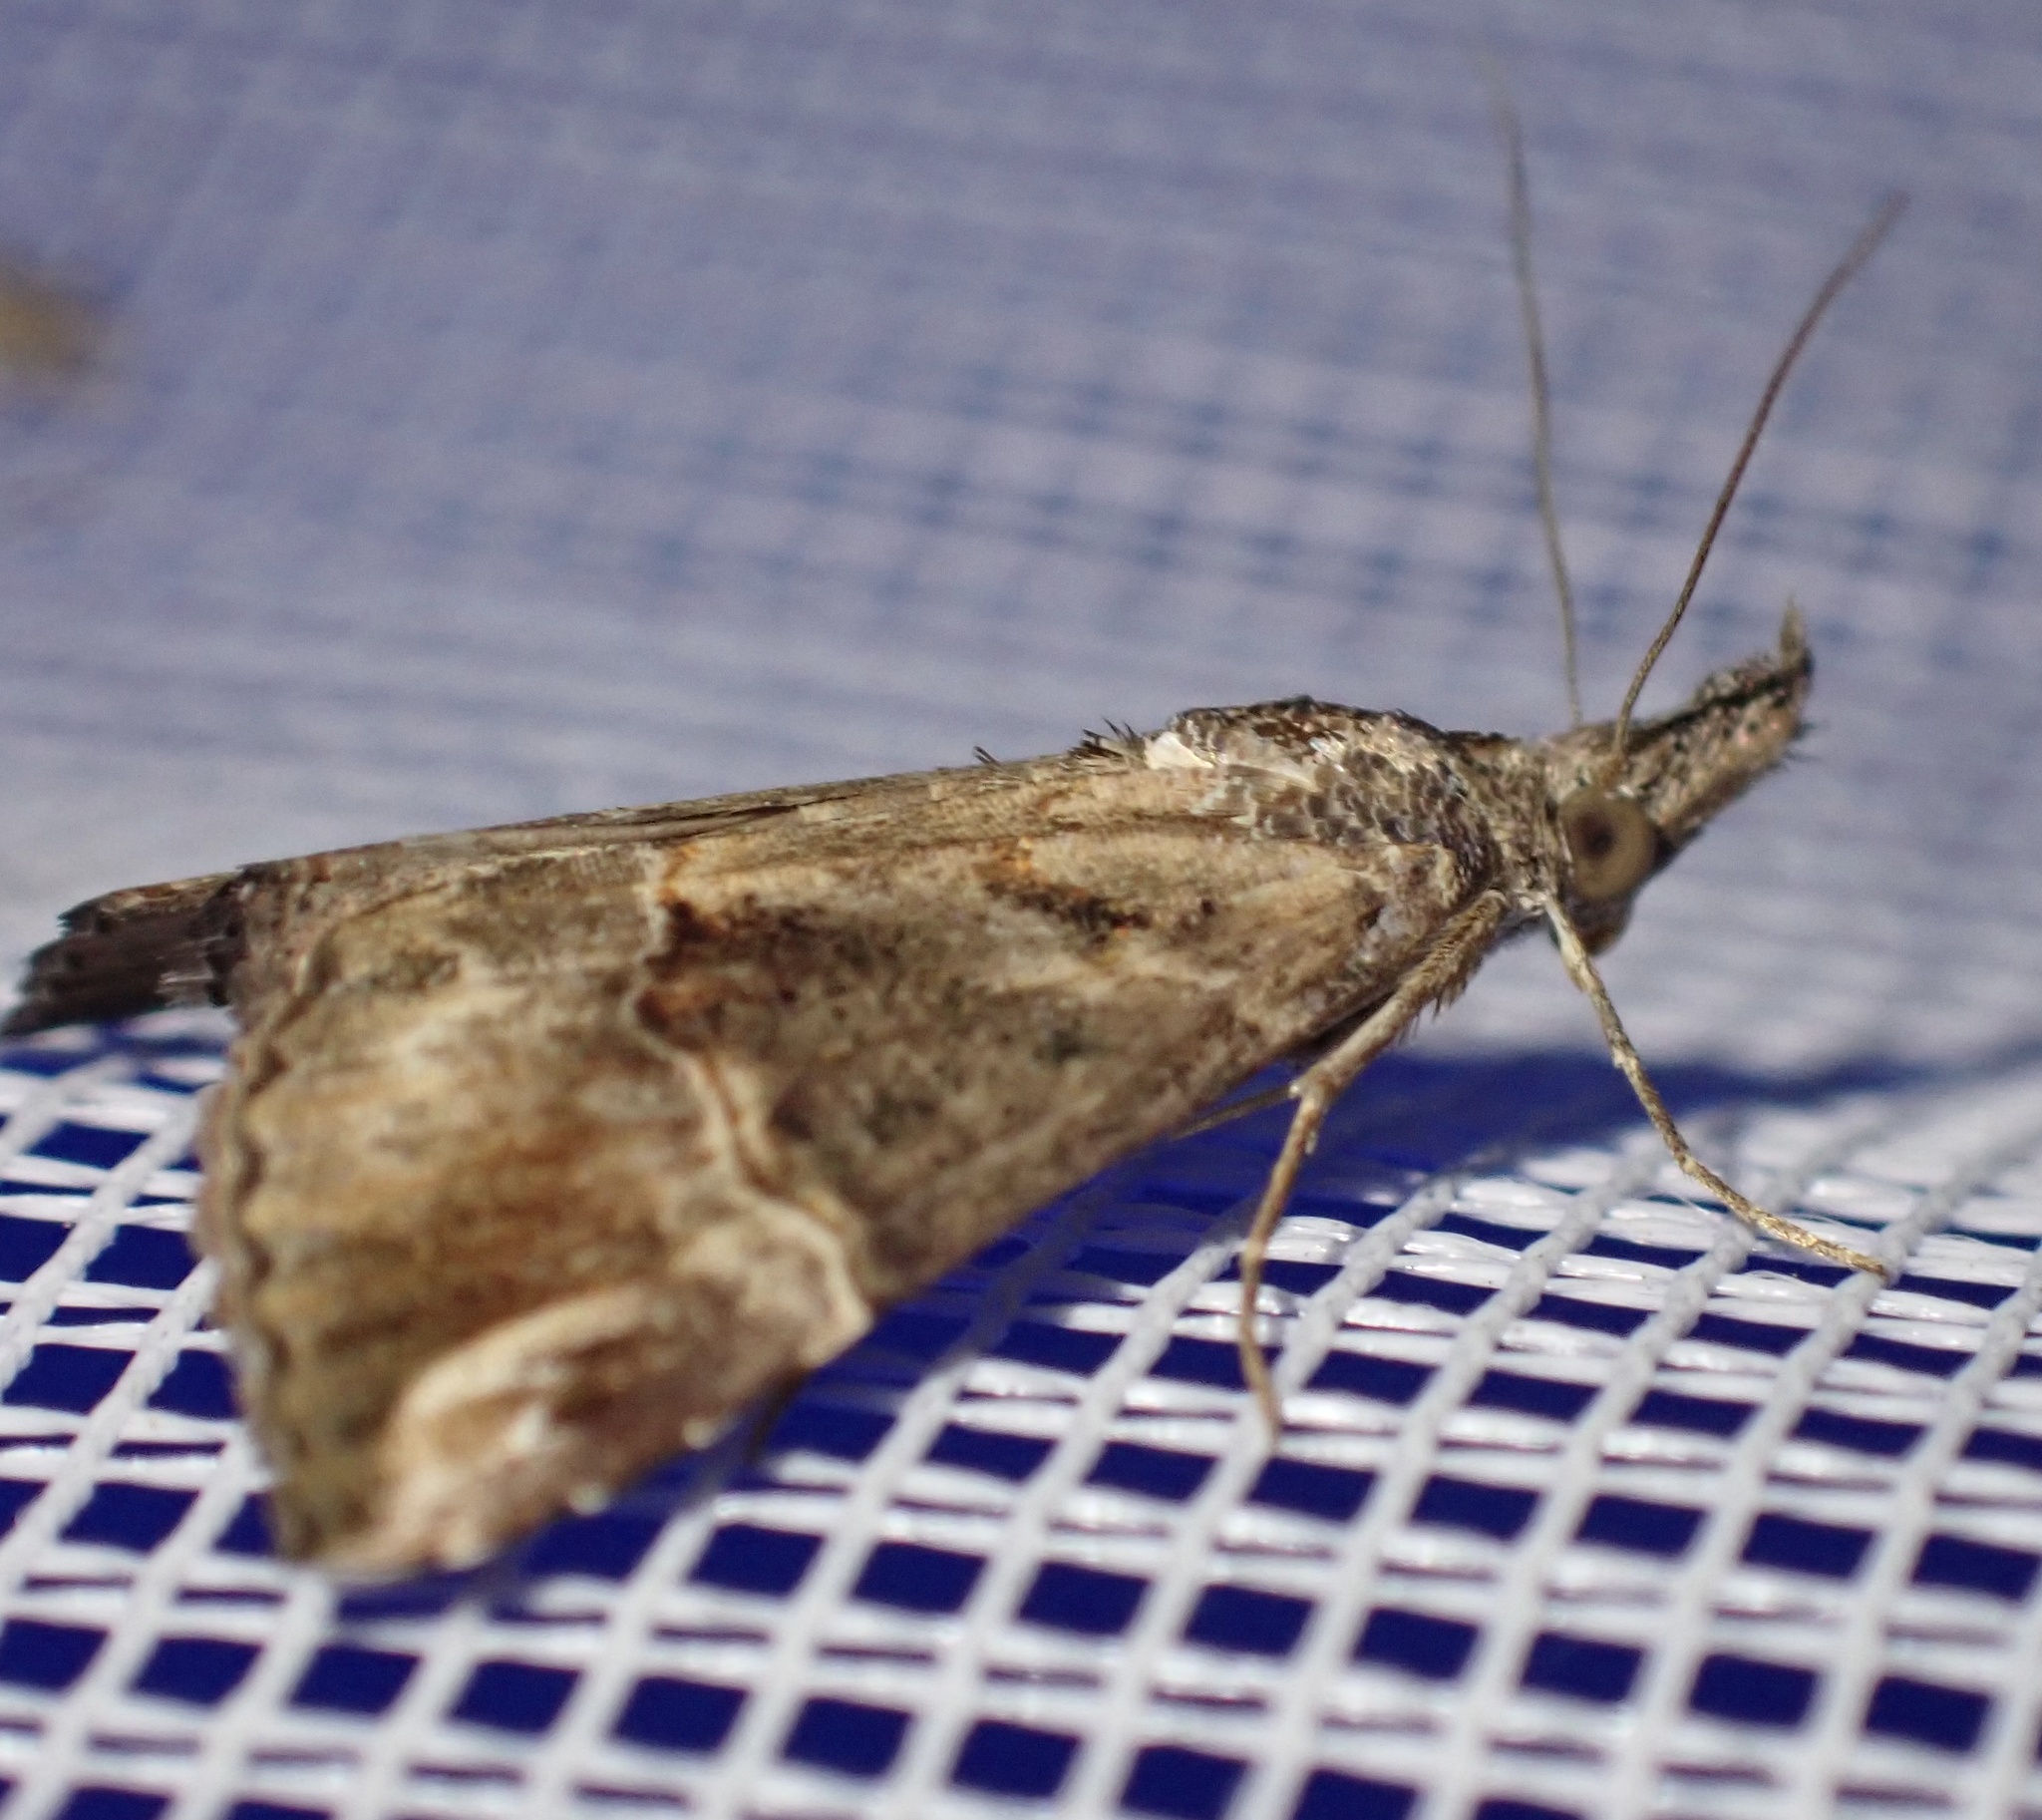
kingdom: Animalia
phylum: Arthropoda
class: Insecta
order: Lepidoptera
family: Erebidae
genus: Hypena
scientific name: Hypena commixtalis
